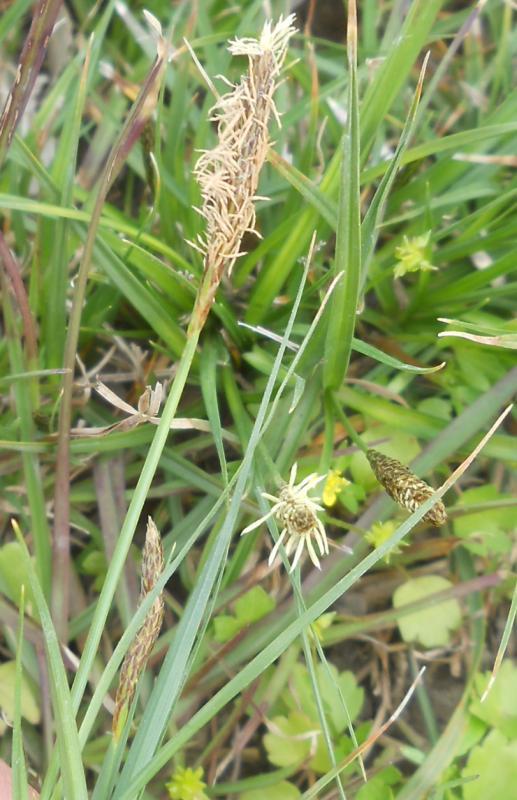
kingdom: Plantae
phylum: Tracheophyta
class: Liliopsida
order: Poales
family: Cyperaceae
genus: Carex
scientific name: Carex halleriana
